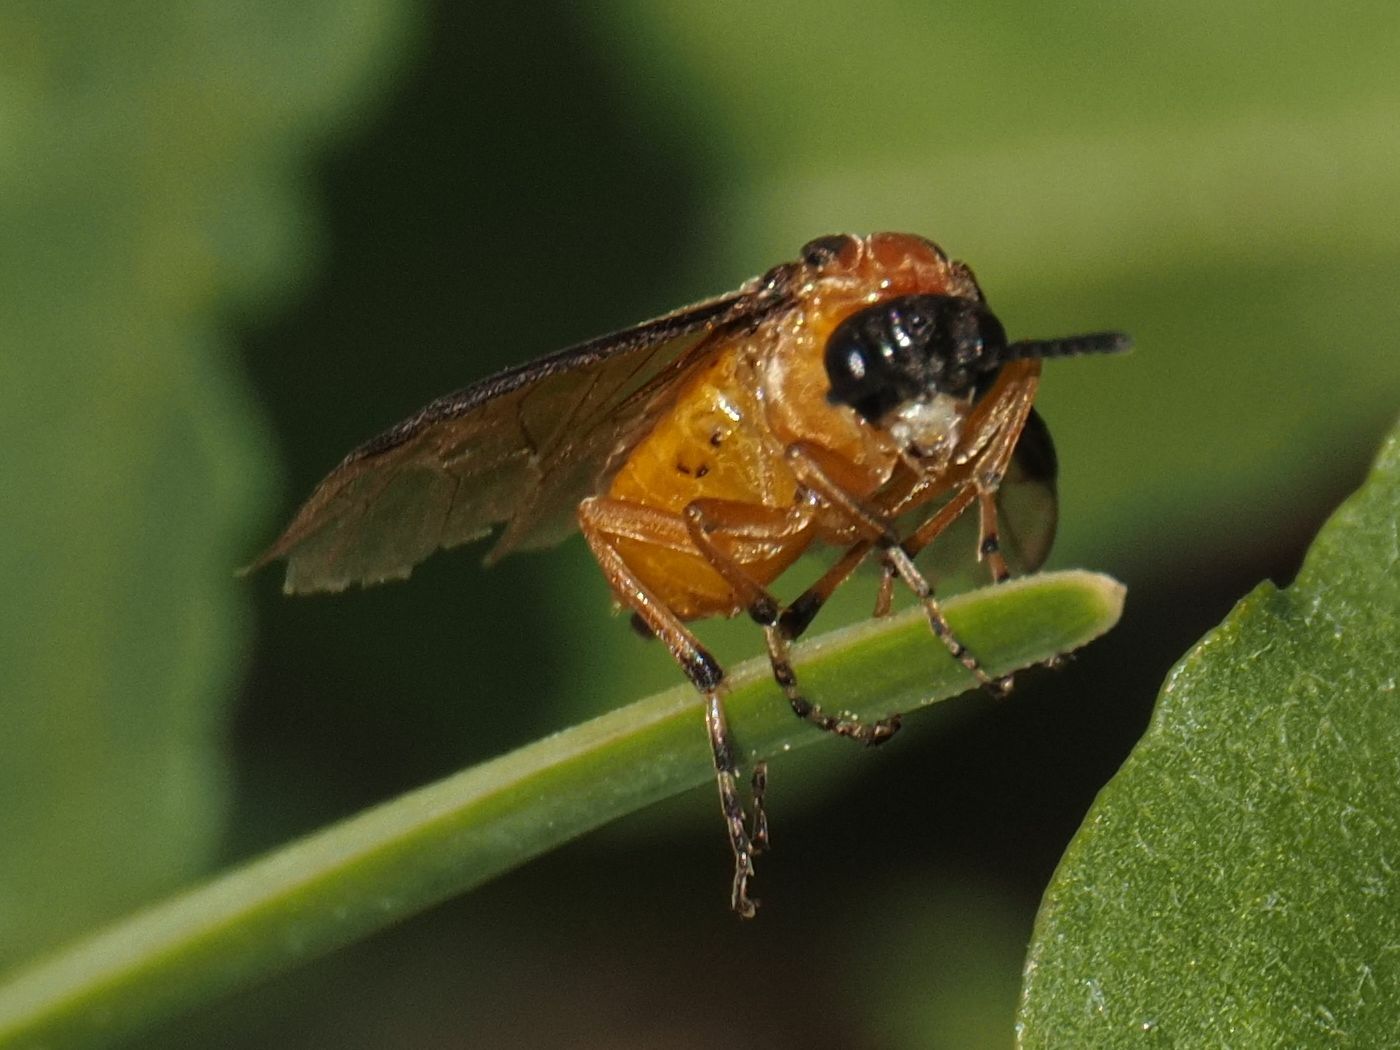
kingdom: Animalia
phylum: Arthropoda
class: Insecta
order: Hymenoptera
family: Tenthredinidae
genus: Athalia
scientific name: Athalia rosae
